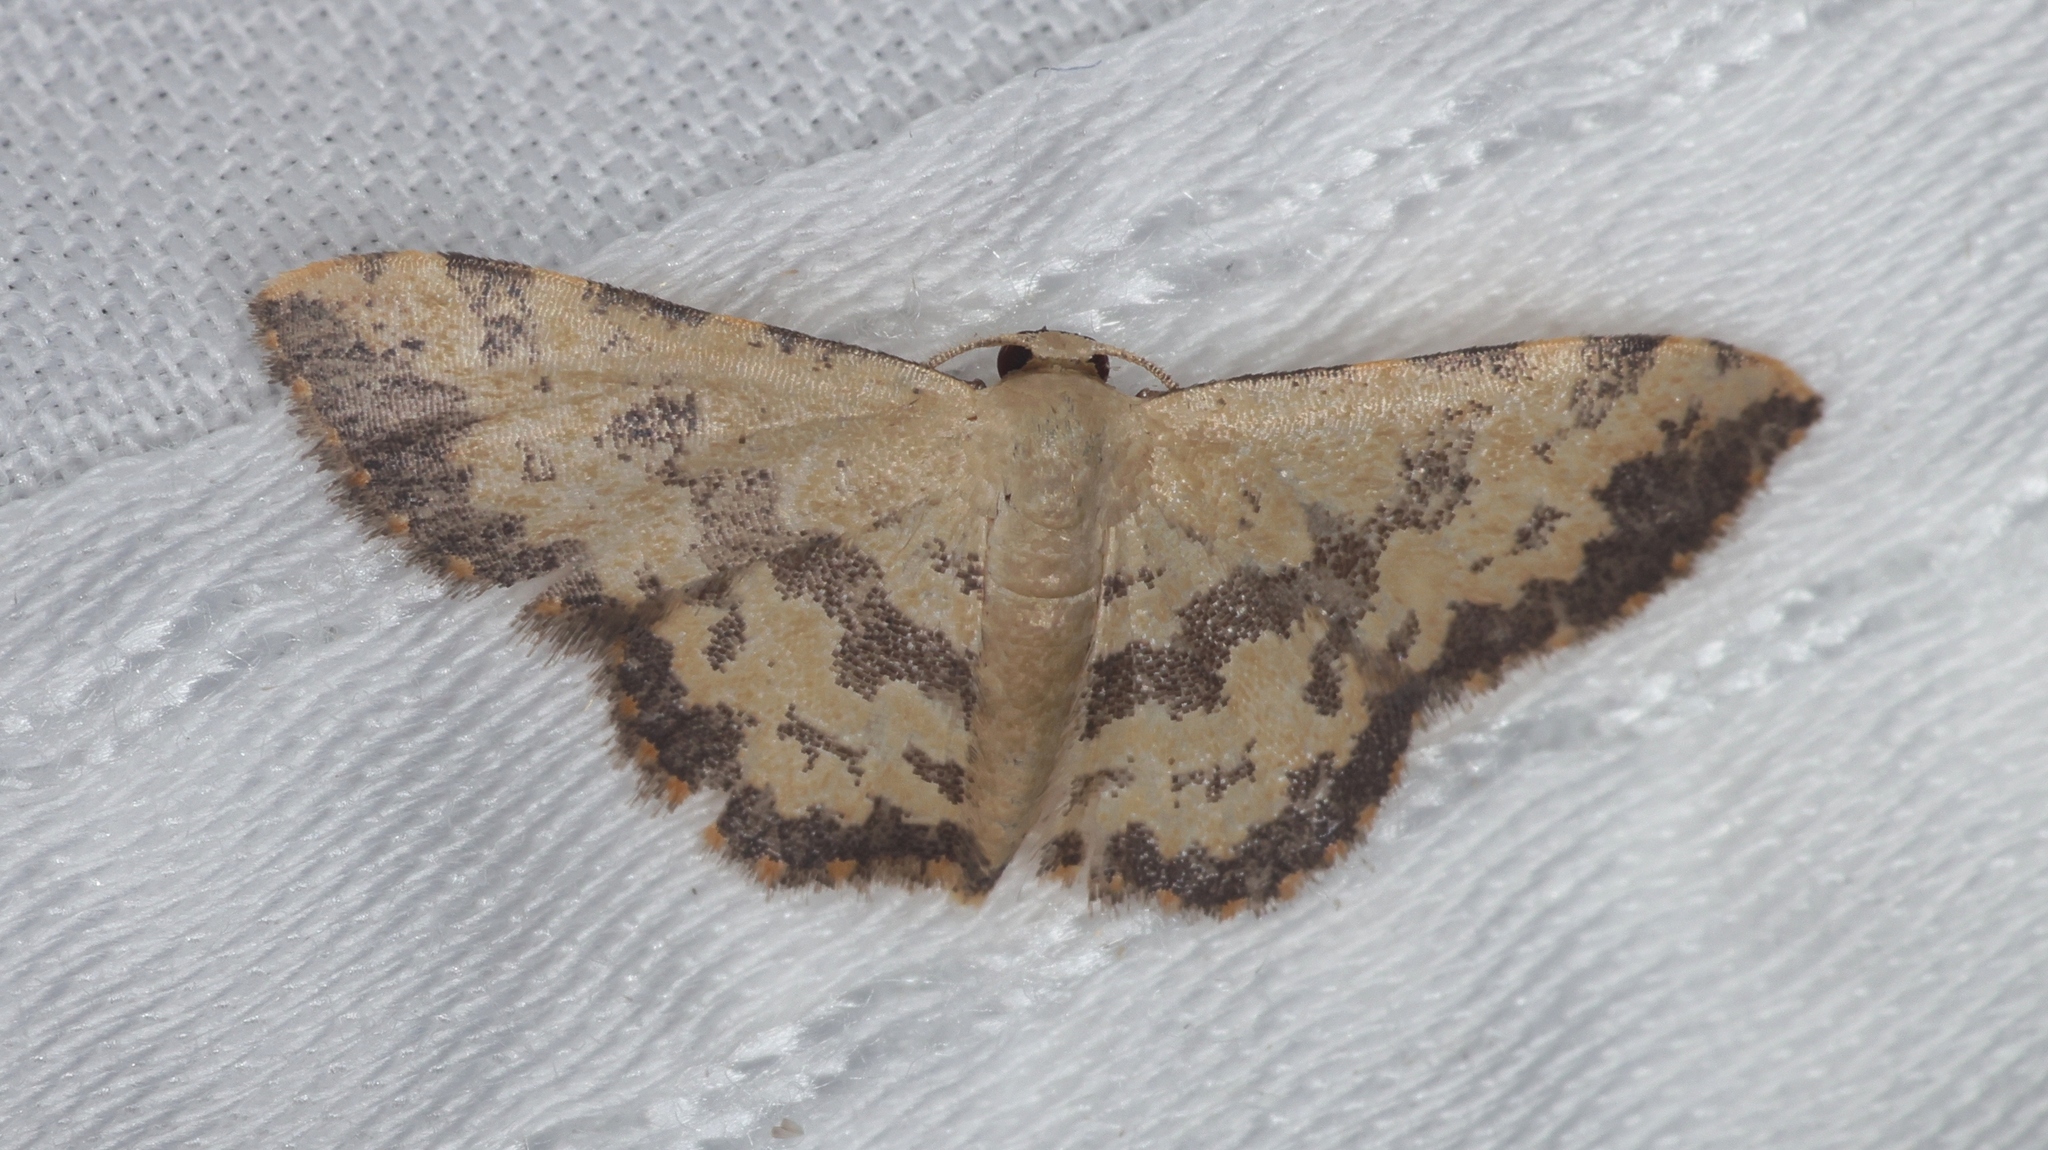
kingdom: Animalia
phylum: Arthropoda
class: Insecta
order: Lepidoptera
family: Geometridae
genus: Idaea
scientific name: Idaea phaeocrossa
